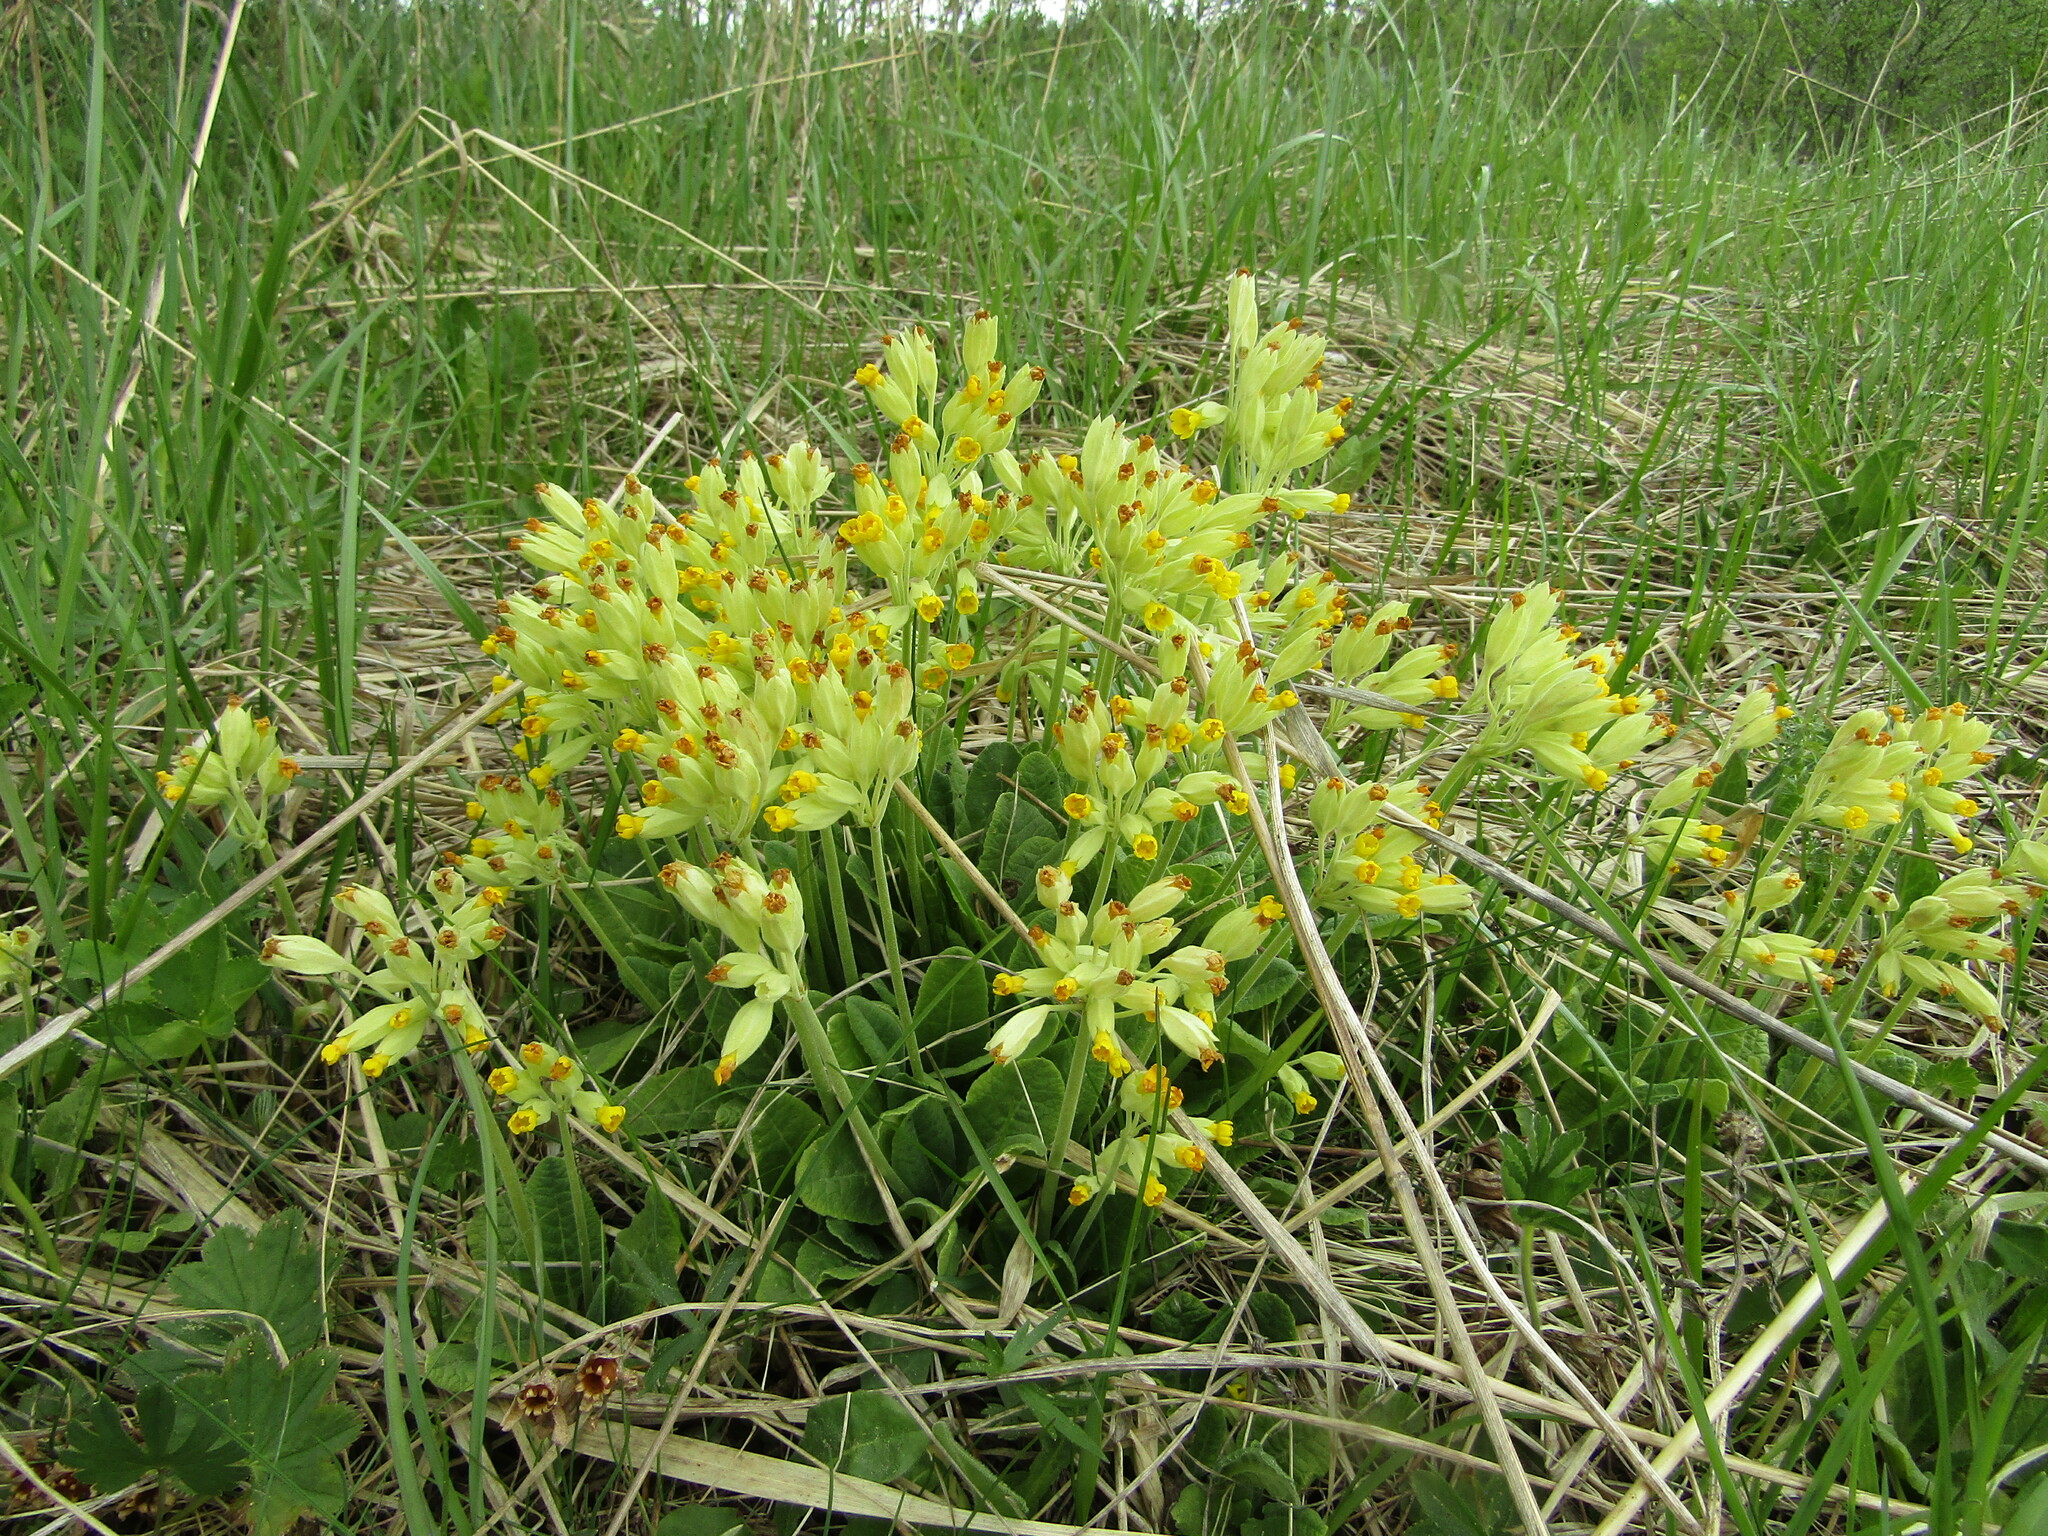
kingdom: Plantae
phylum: Tracheophyta
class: Magnoliopsida
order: Ericales
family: Primulaceae
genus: Primula
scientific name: Primula veris
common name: Cowslip
